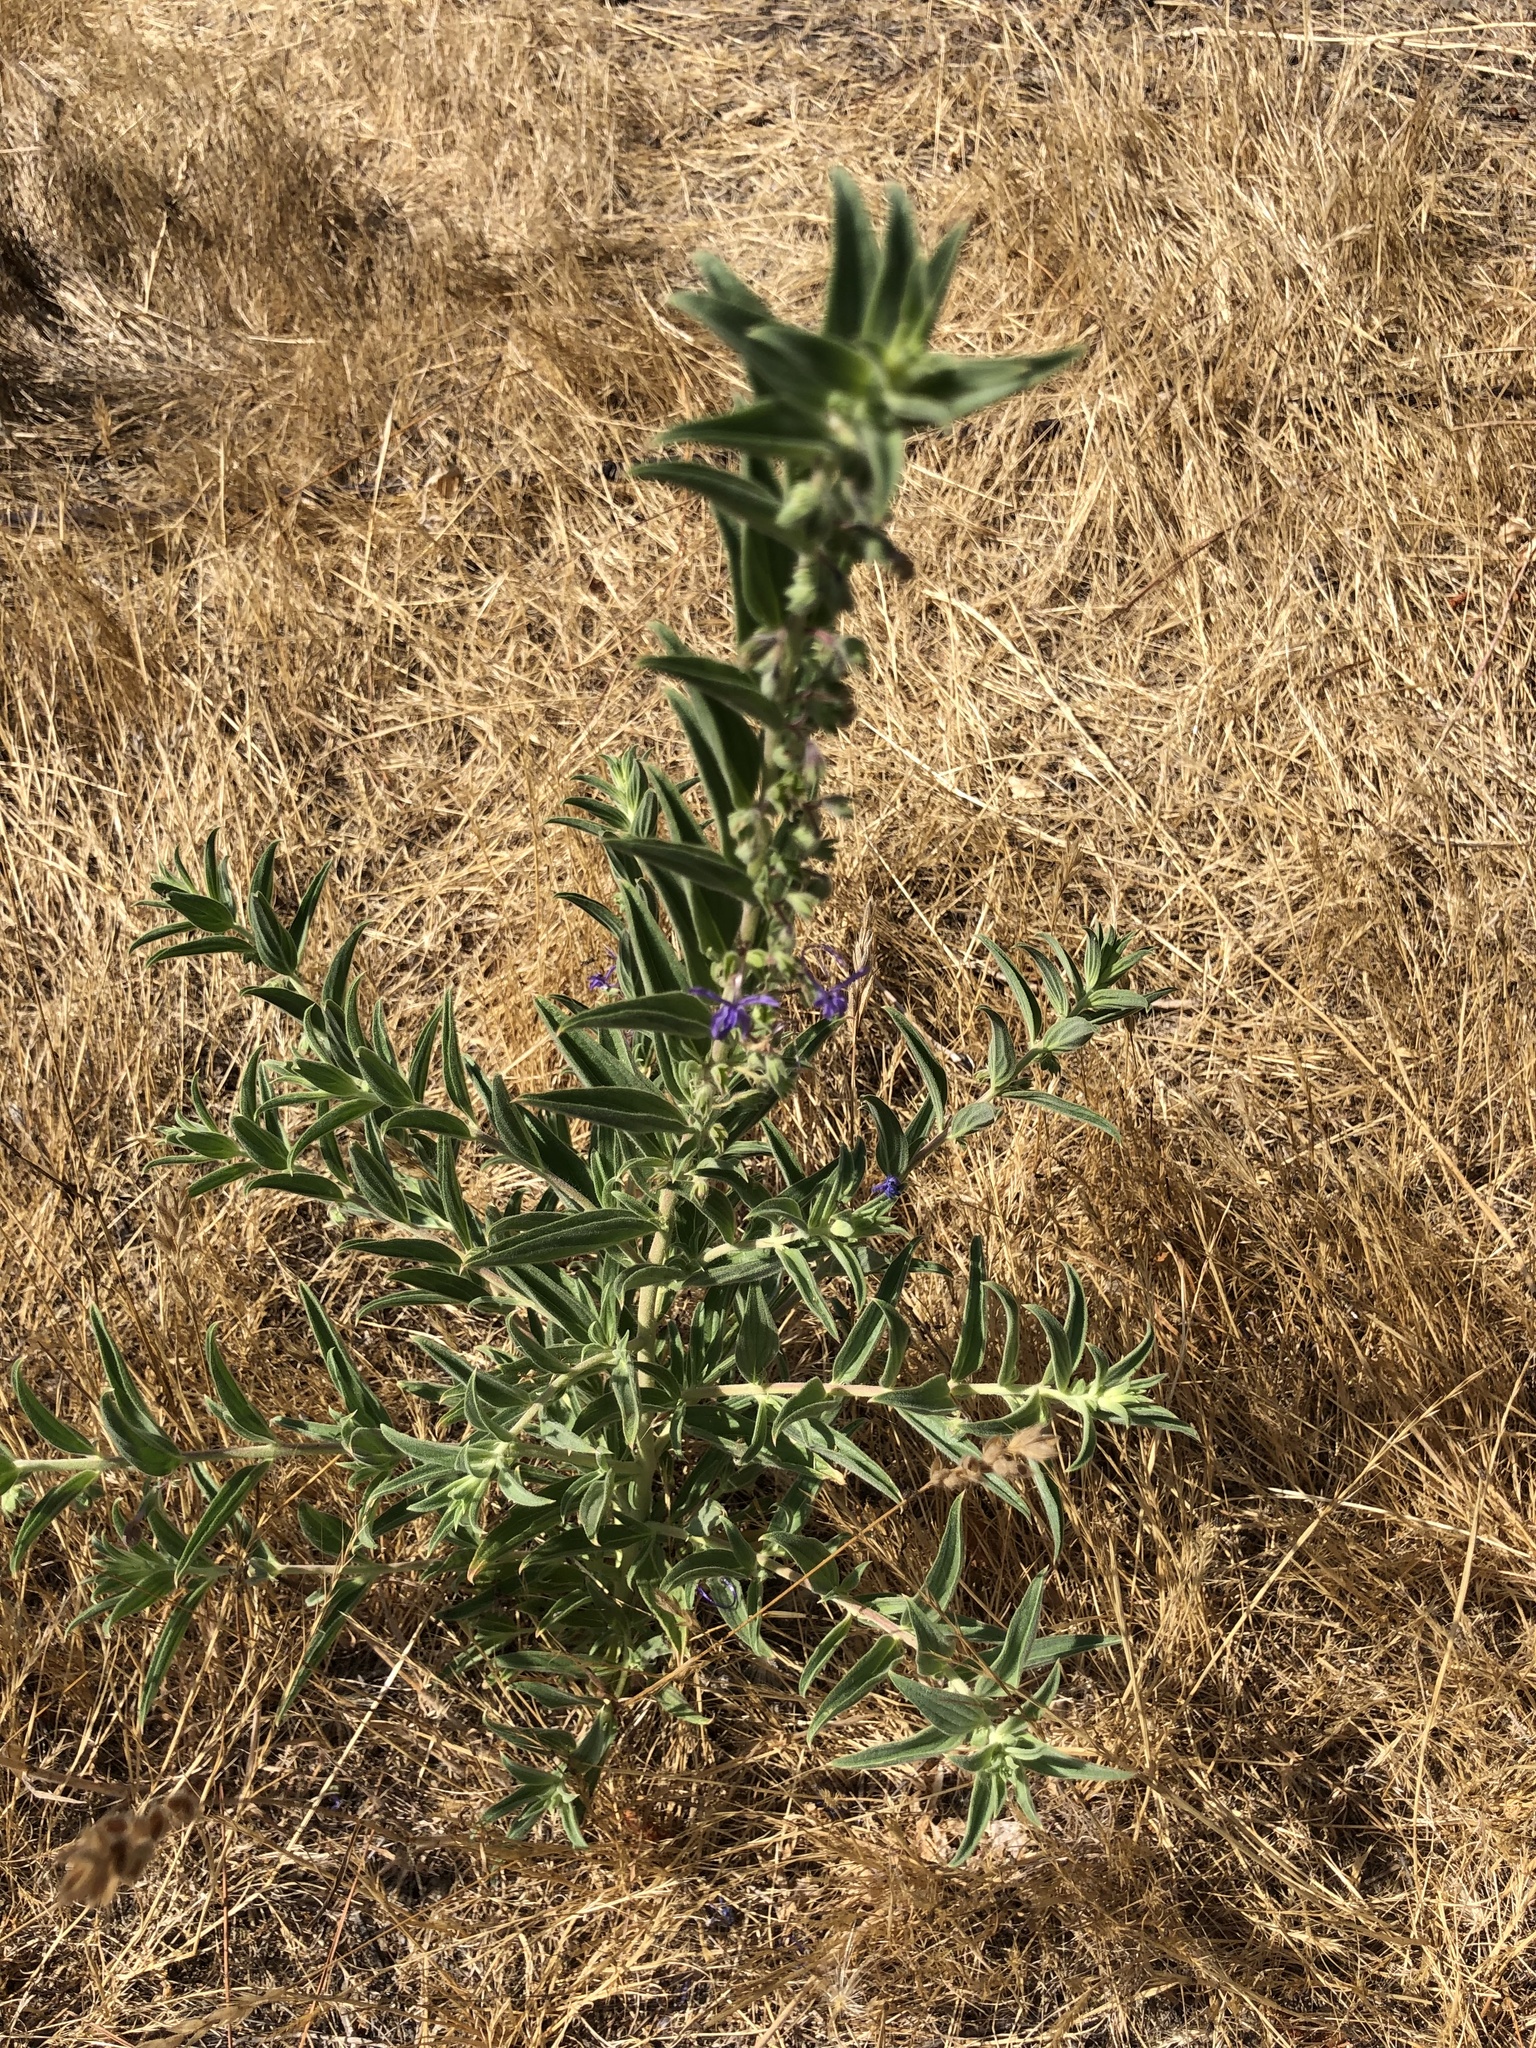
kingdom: Plantae
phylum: Tracheophyta
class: Magnoliopsida
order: Lamiales
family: Lamiaceae
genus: Trichostema
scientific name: Trichostema lanceolatum
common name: Vinegar-weed
